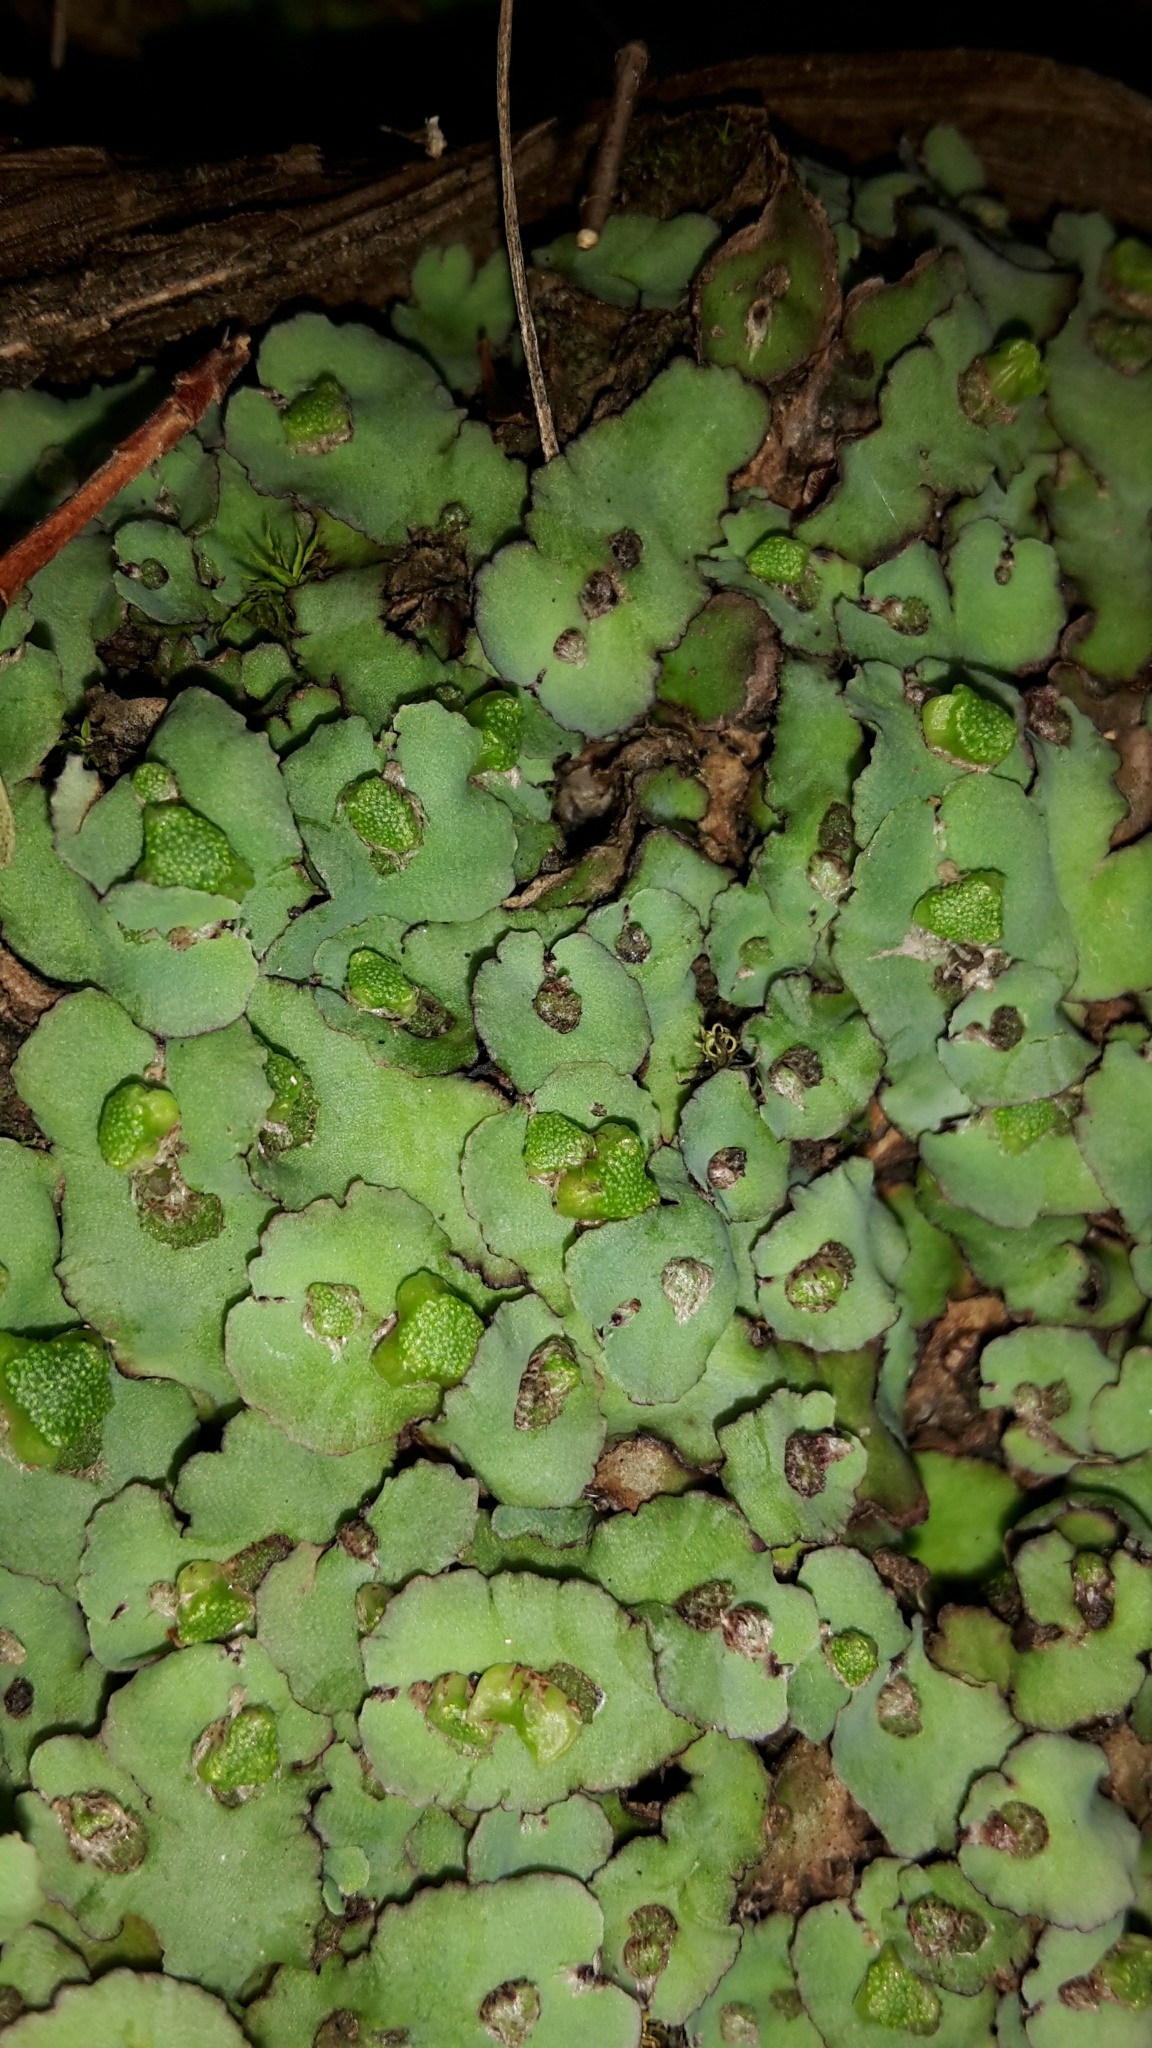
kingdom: Plantae
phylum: Marchantiophyta
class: Marchantiopsida
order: Marchantiales
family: Aytoniaceae
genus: Plagiochasma
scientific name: Plagiochasma rupestre
